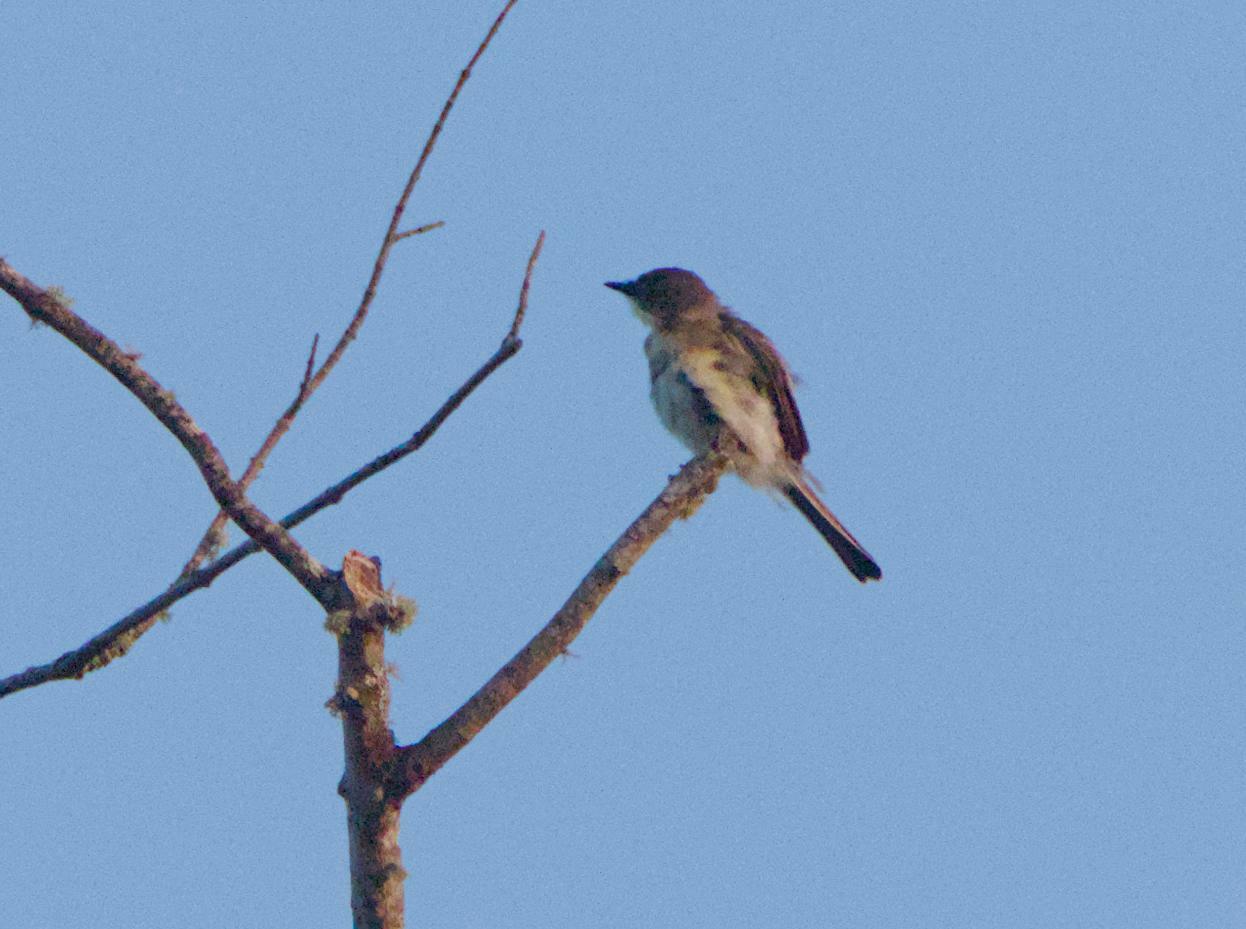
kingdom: Animalia
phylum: Chordata
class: Aves
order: Passeriformes
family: Tyrannidae
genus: Sayornis
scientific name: Sayornis phoebe
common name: Eastern phoebe
